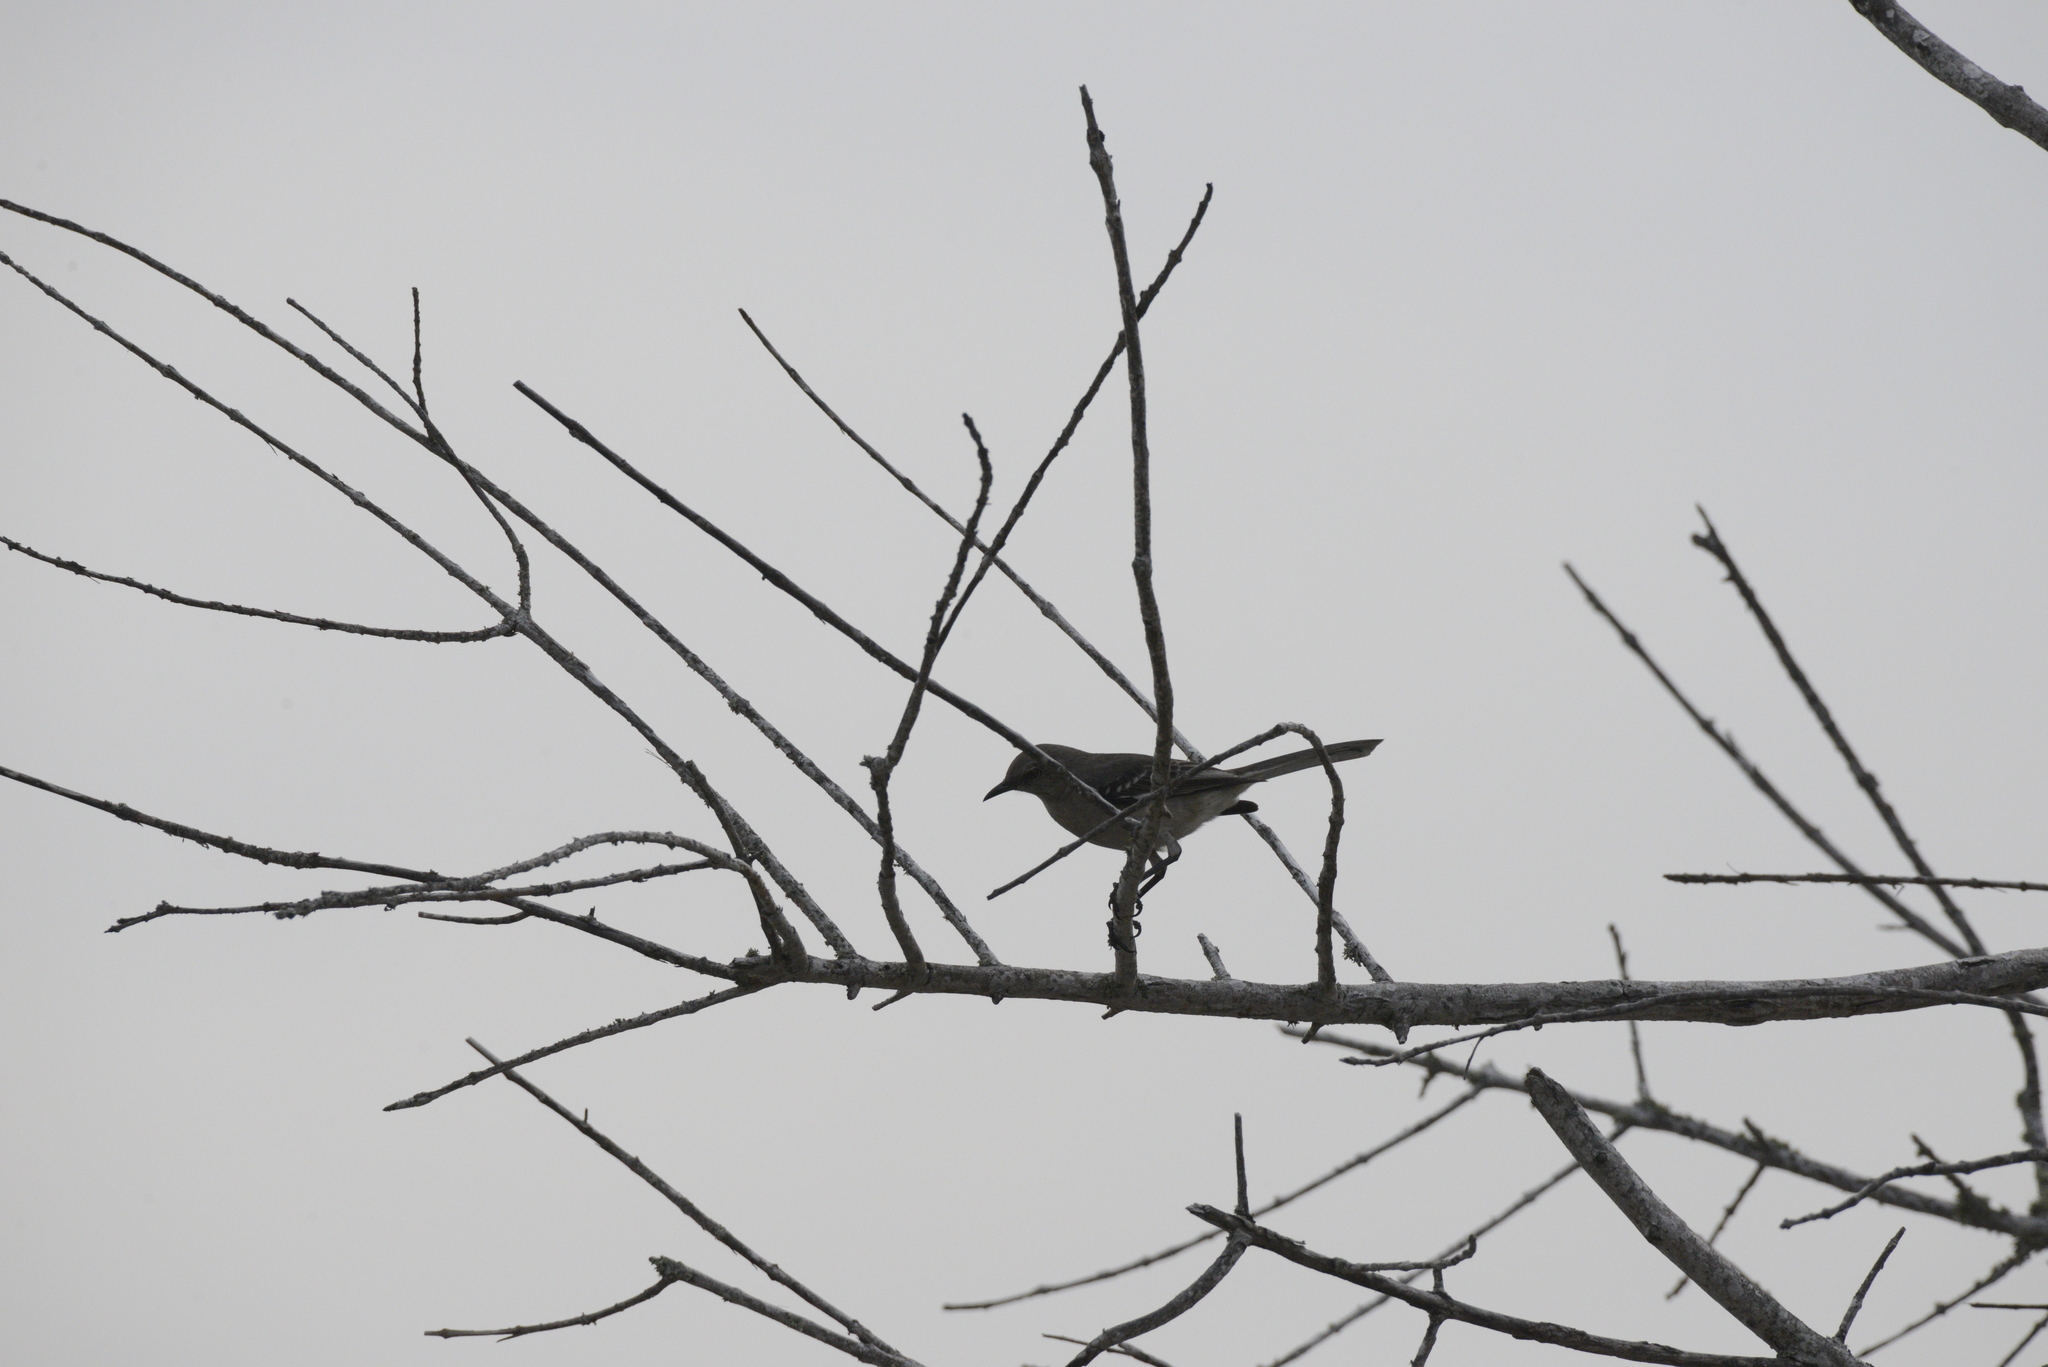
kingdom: Animalia
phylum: Chordata
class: Aves
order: Passeriformes
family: Mimidae
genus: Mimus
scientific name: Mimus polyglottos
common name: Northern mockingbird
